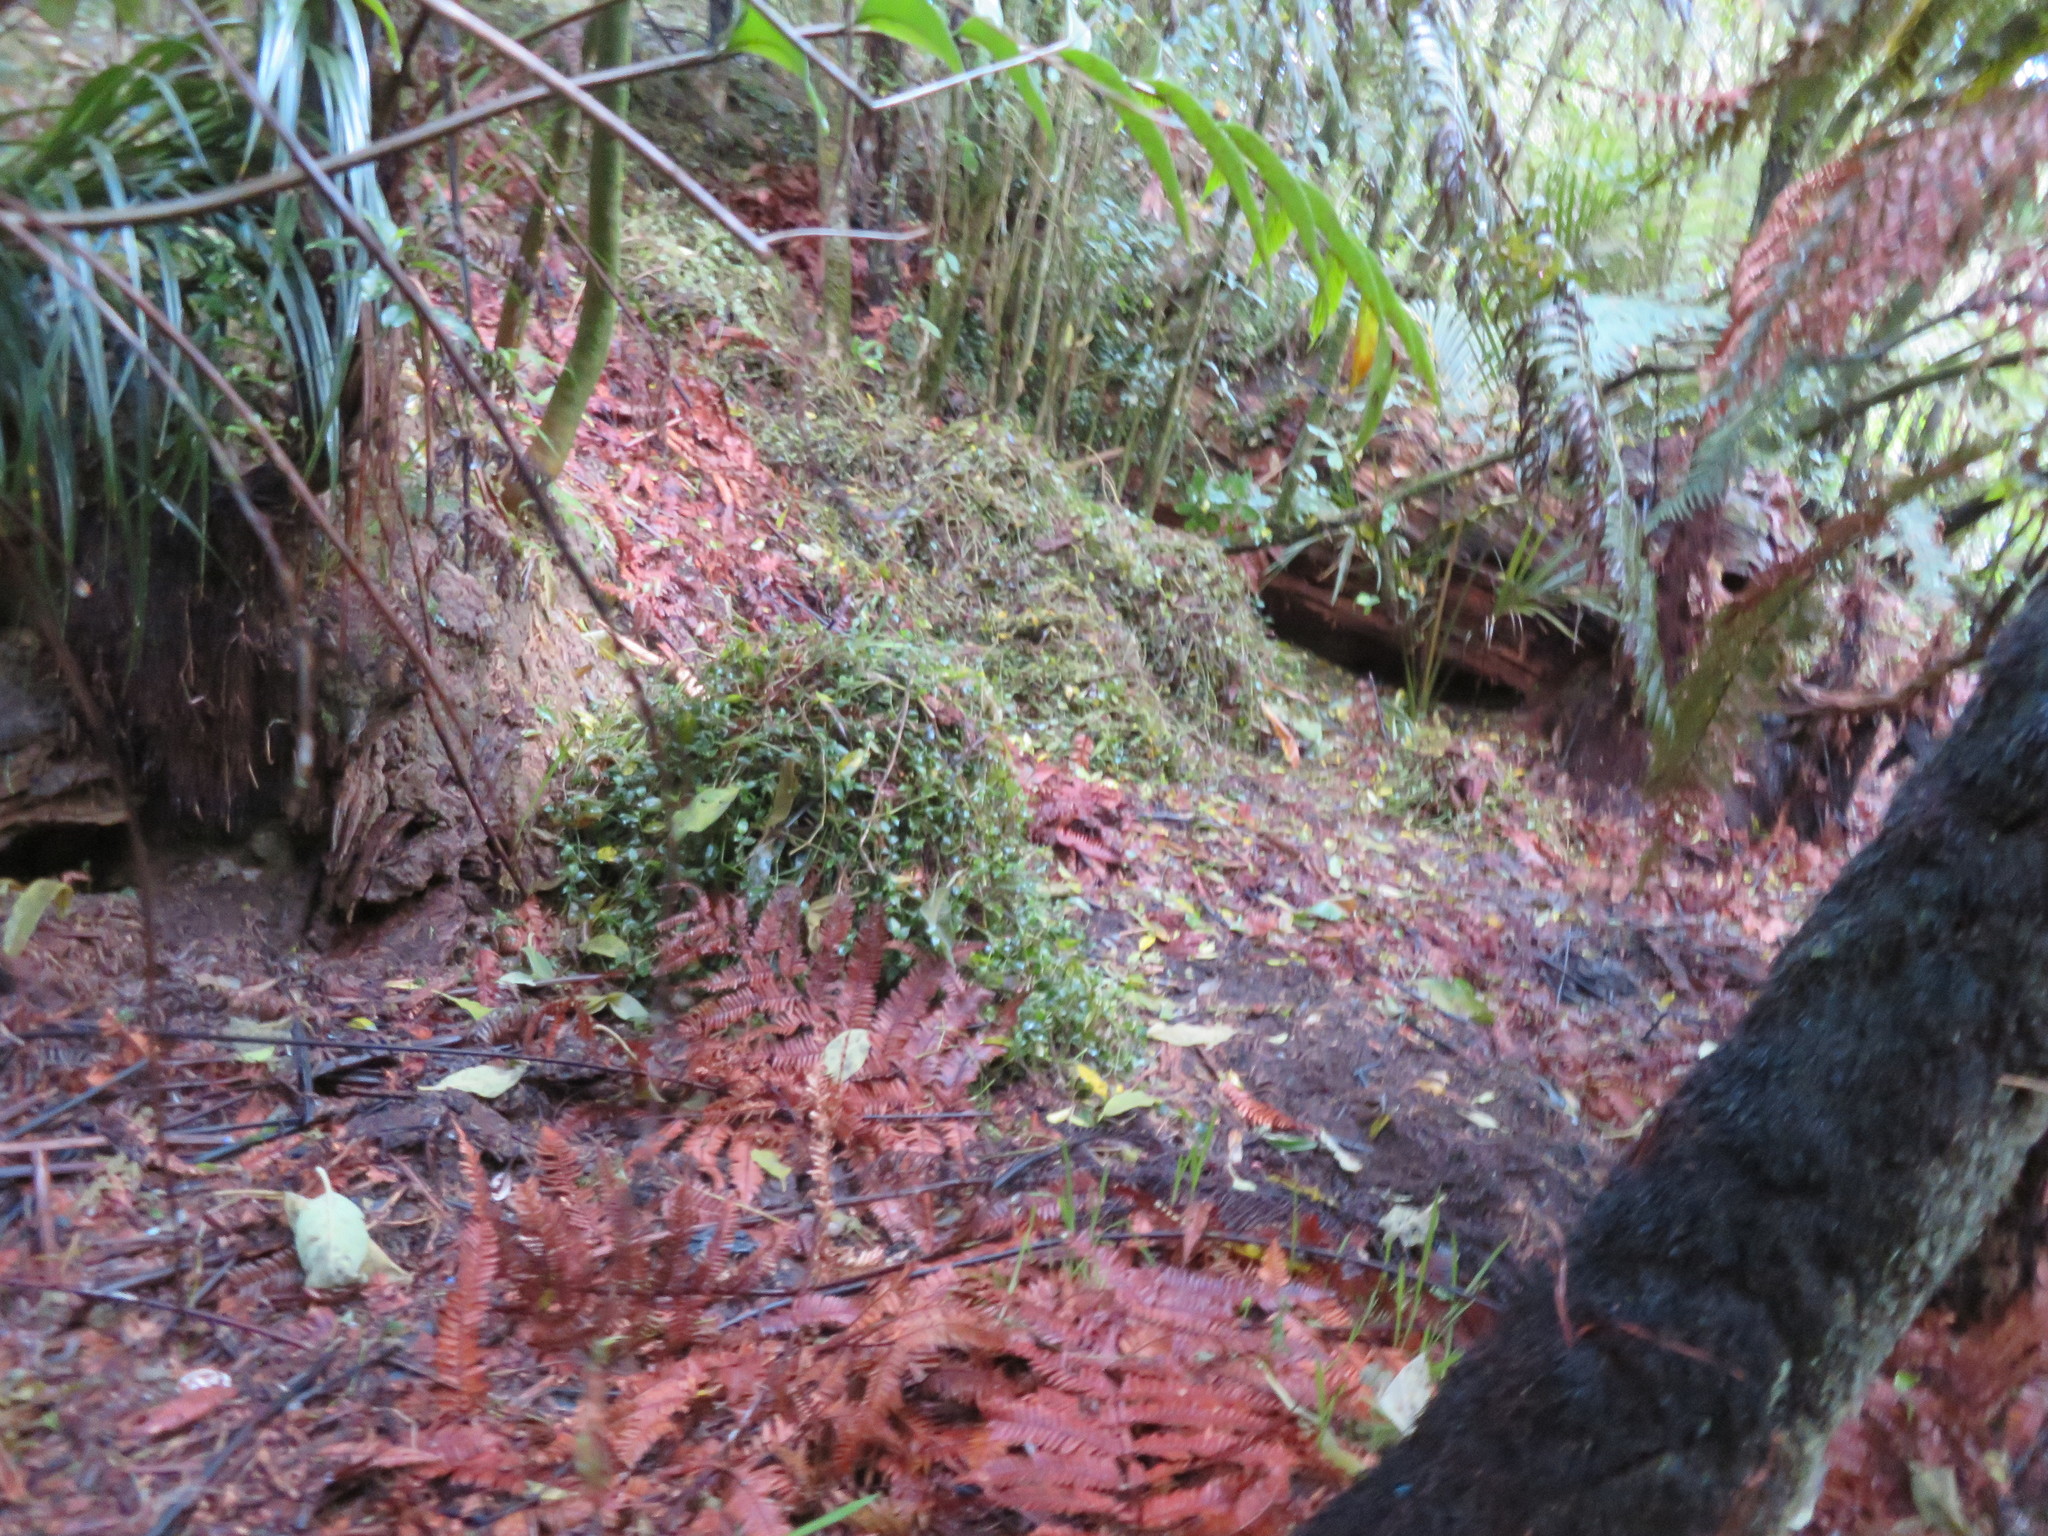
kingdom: Plantae
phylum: Tracheophyta
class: Liliopsida
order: Commelinales
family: Commelinaceae
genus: Tradescantia
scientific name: Tradescantia fluminensis
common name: Wandering-jew
